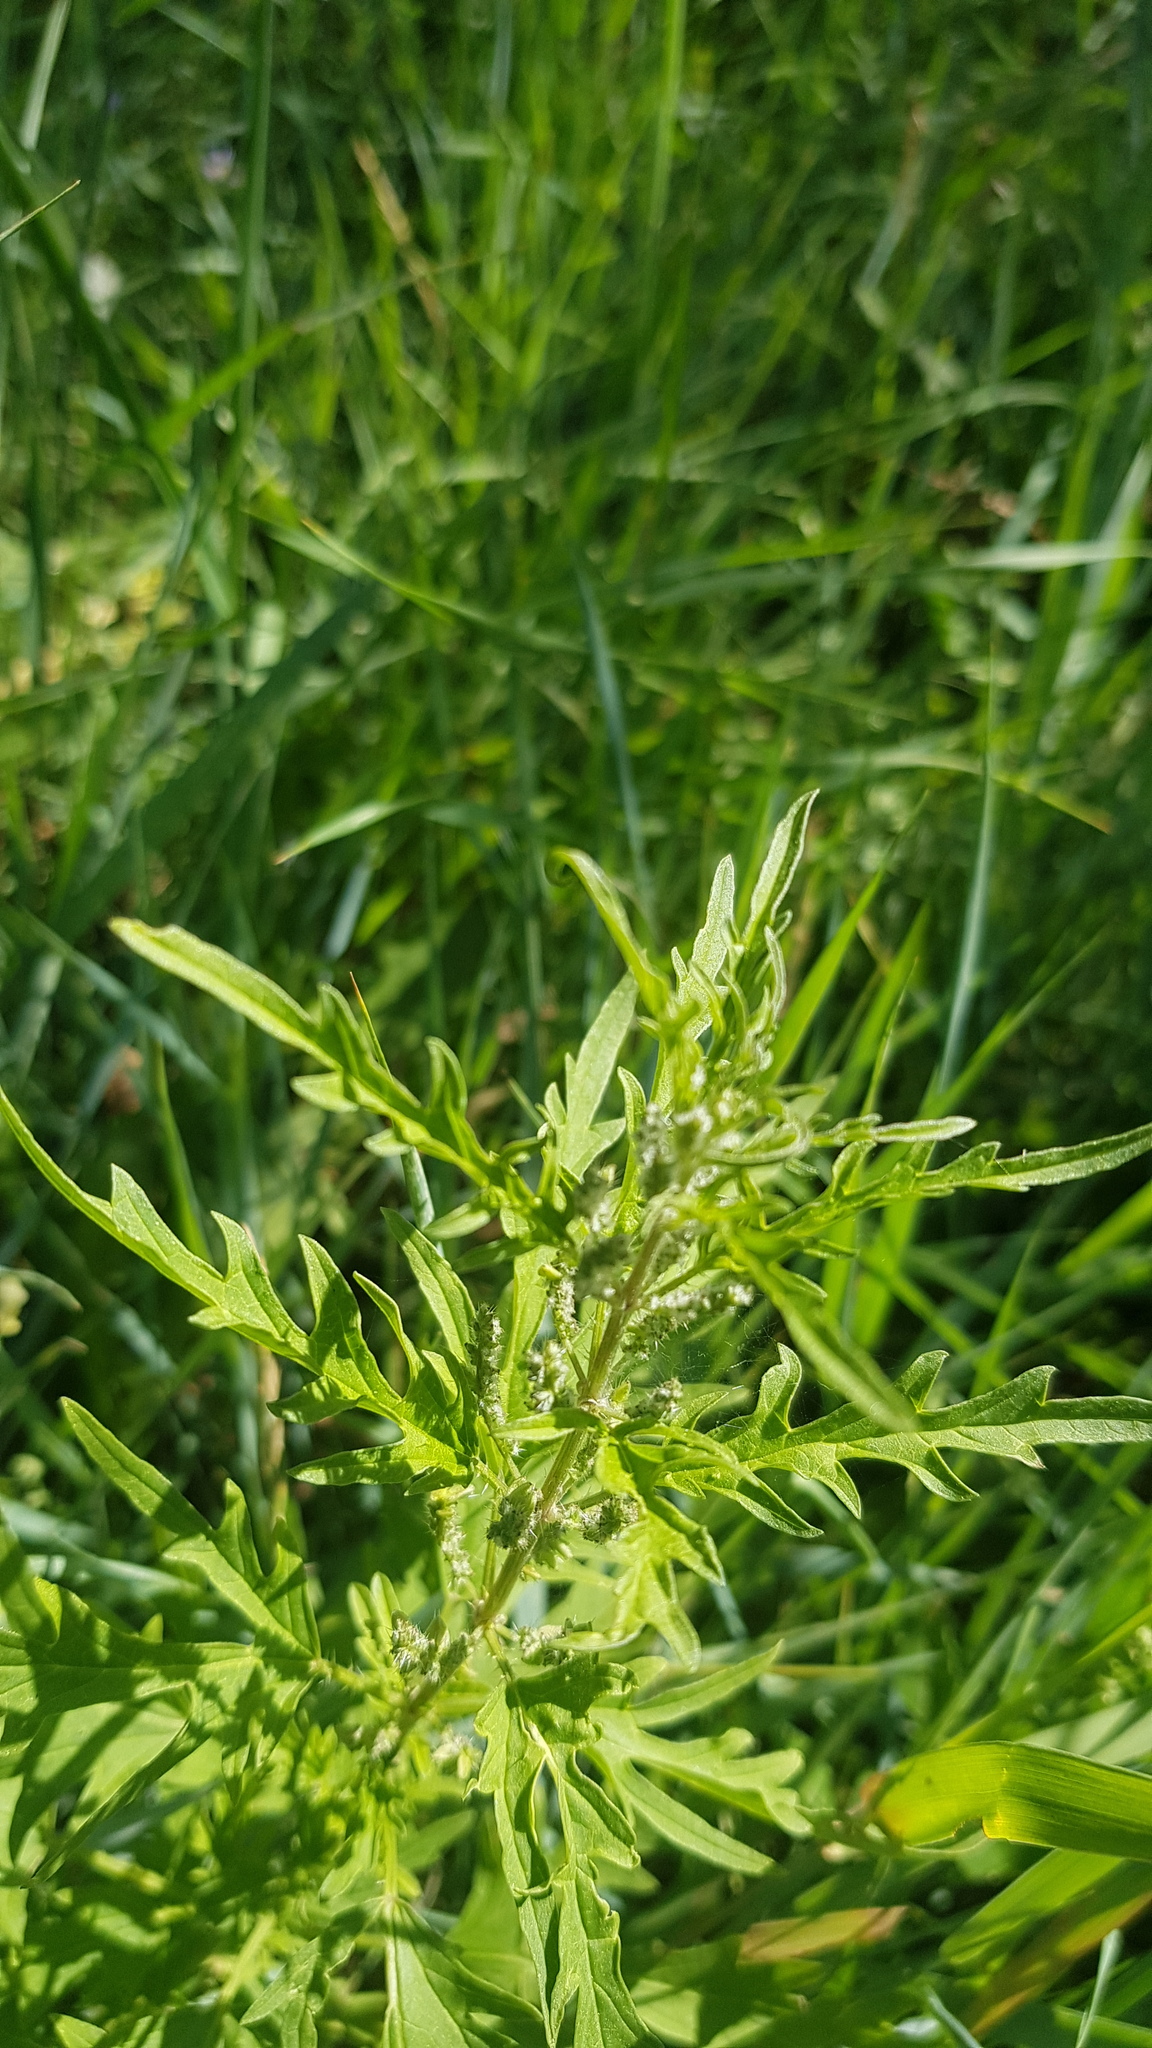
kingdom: Plantae
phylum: Tracheophyta
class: Magnoliopsida
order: Rosales
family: Urticaceae
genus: Urtica
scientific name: Urtica cannabina
